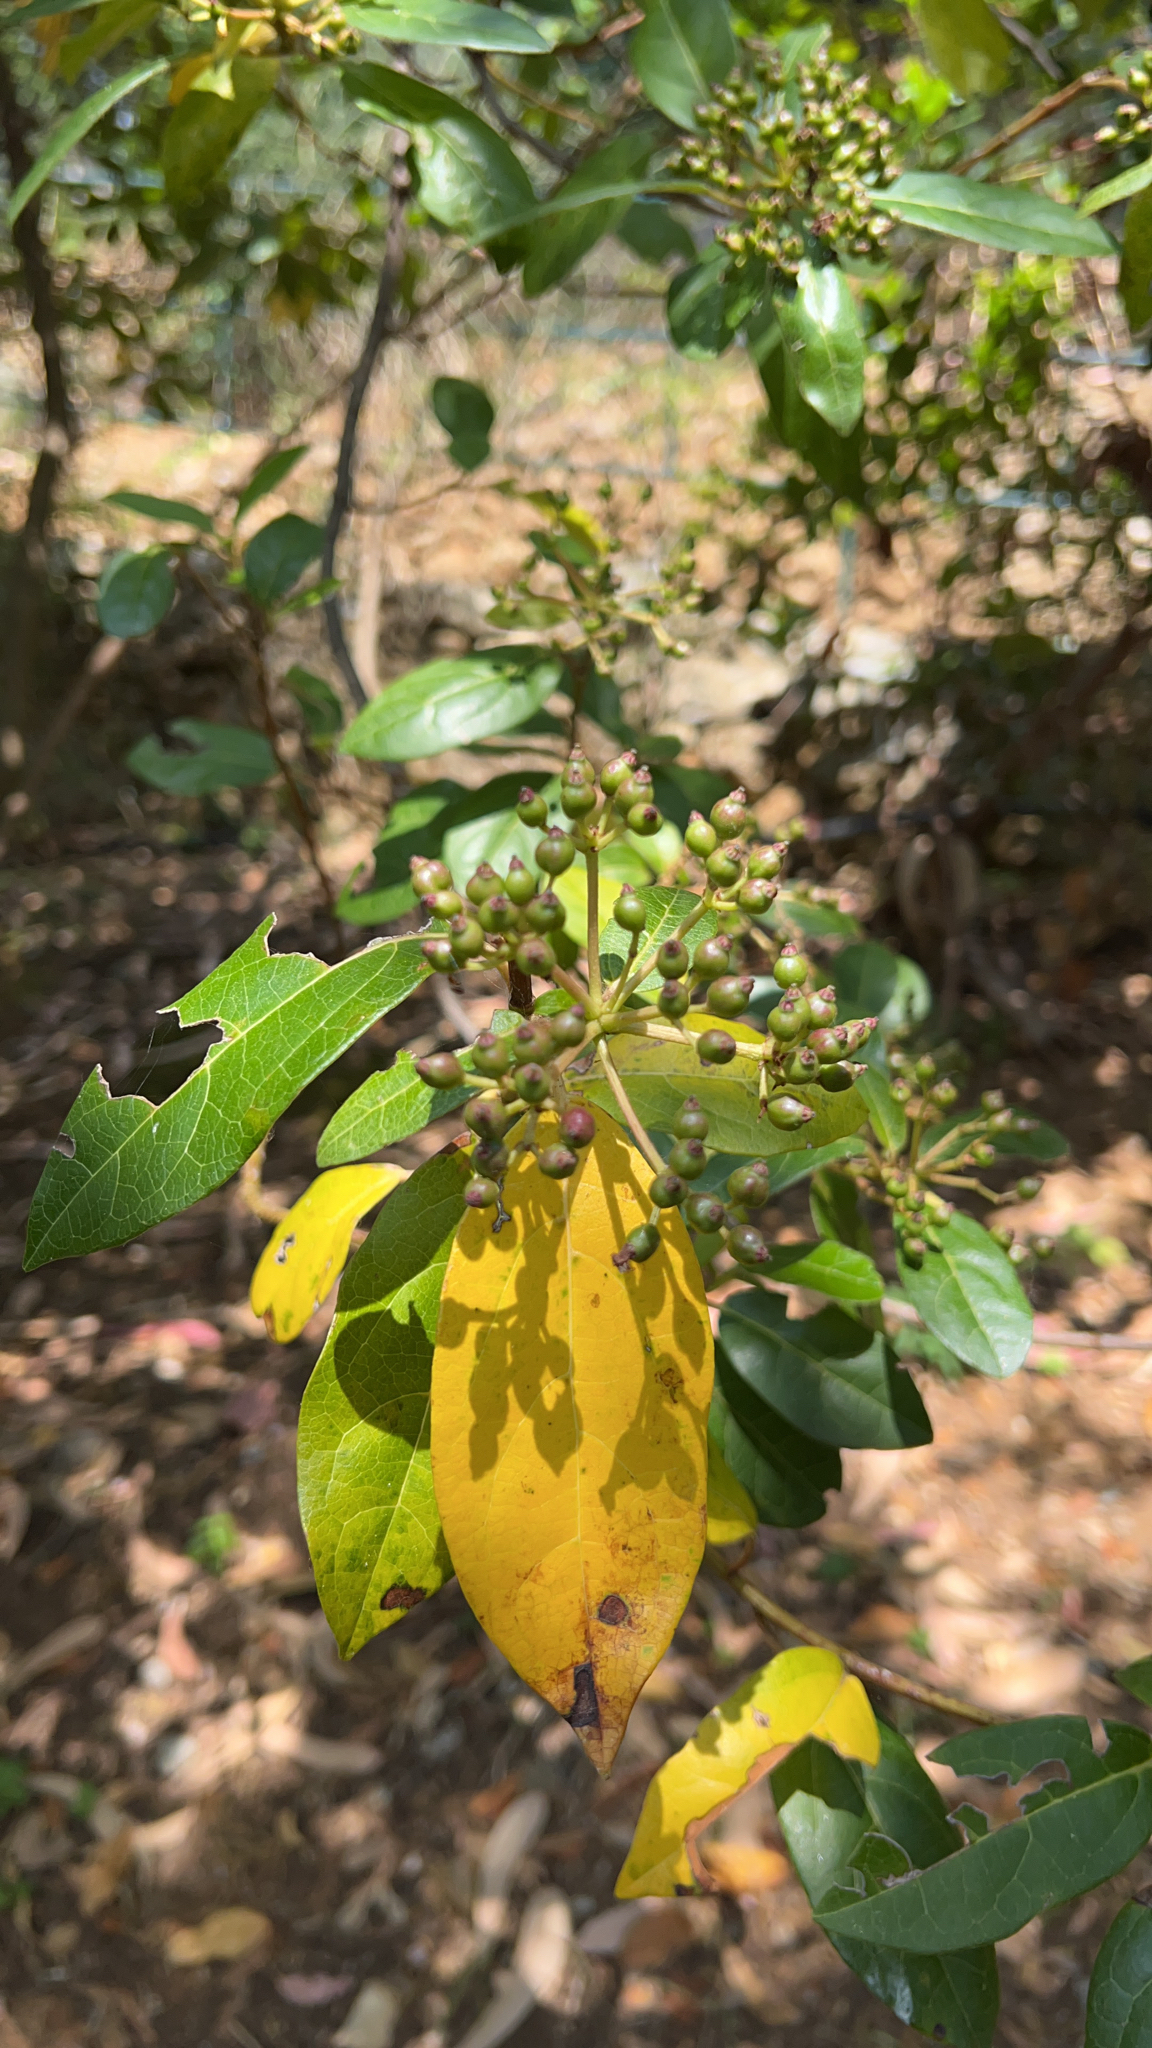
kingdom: Plantae
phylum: Tracheophyta
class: Magnoliopsida
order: Dipsacales
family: Viburnaceae
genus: Viburnum
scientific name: Viburnum tinus
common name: Laurustinus
